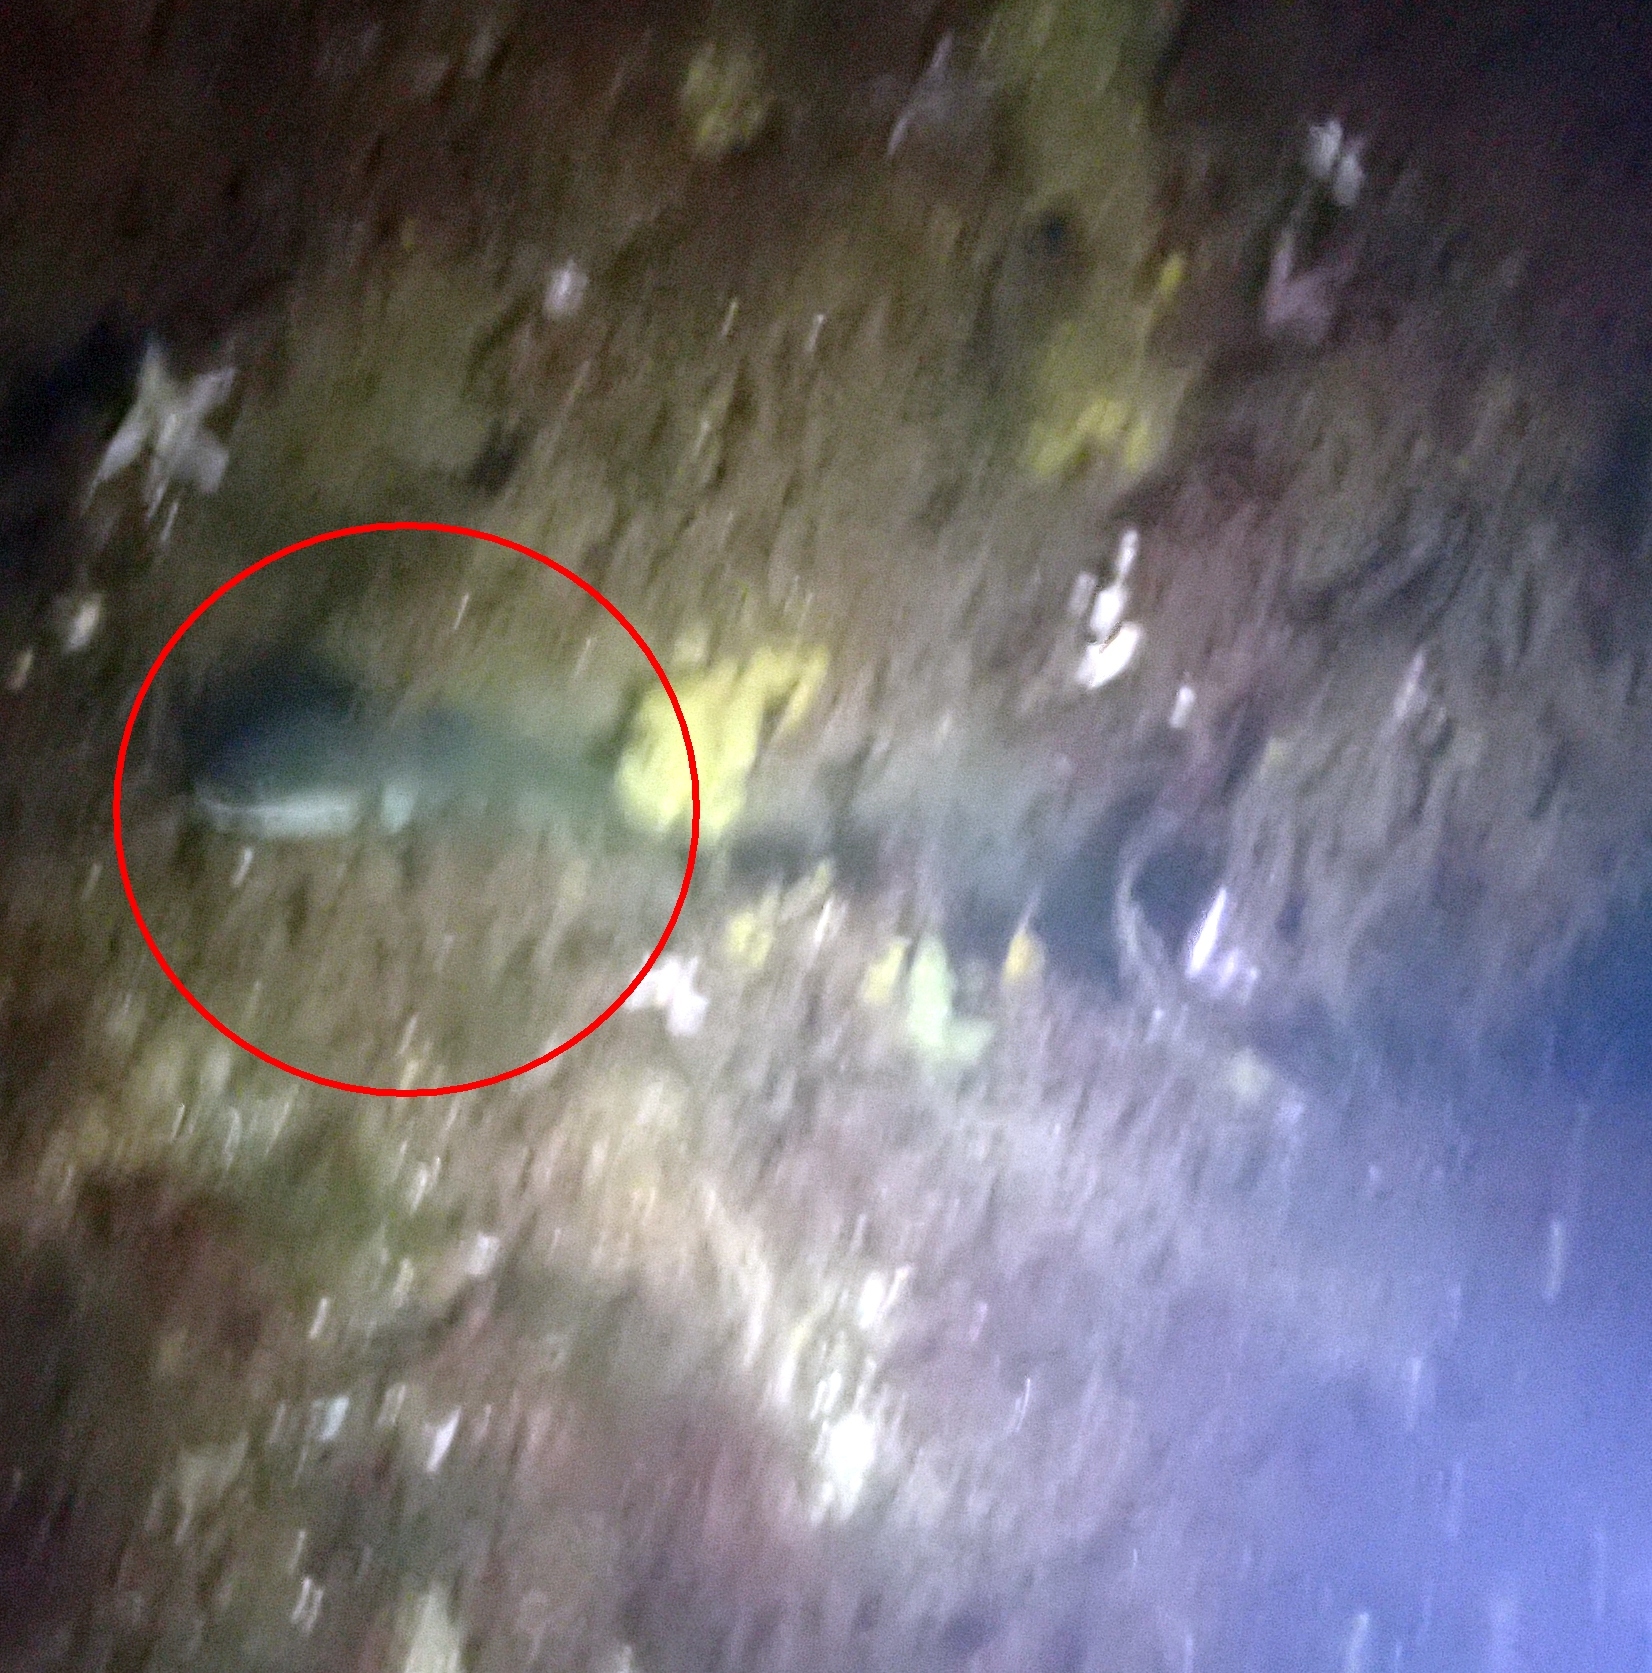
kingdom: Animalia
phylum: Chordata
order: Anguilliformes
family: Anguillidae
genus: Anguilla
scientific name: Anguilla anguilla
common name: European eel
